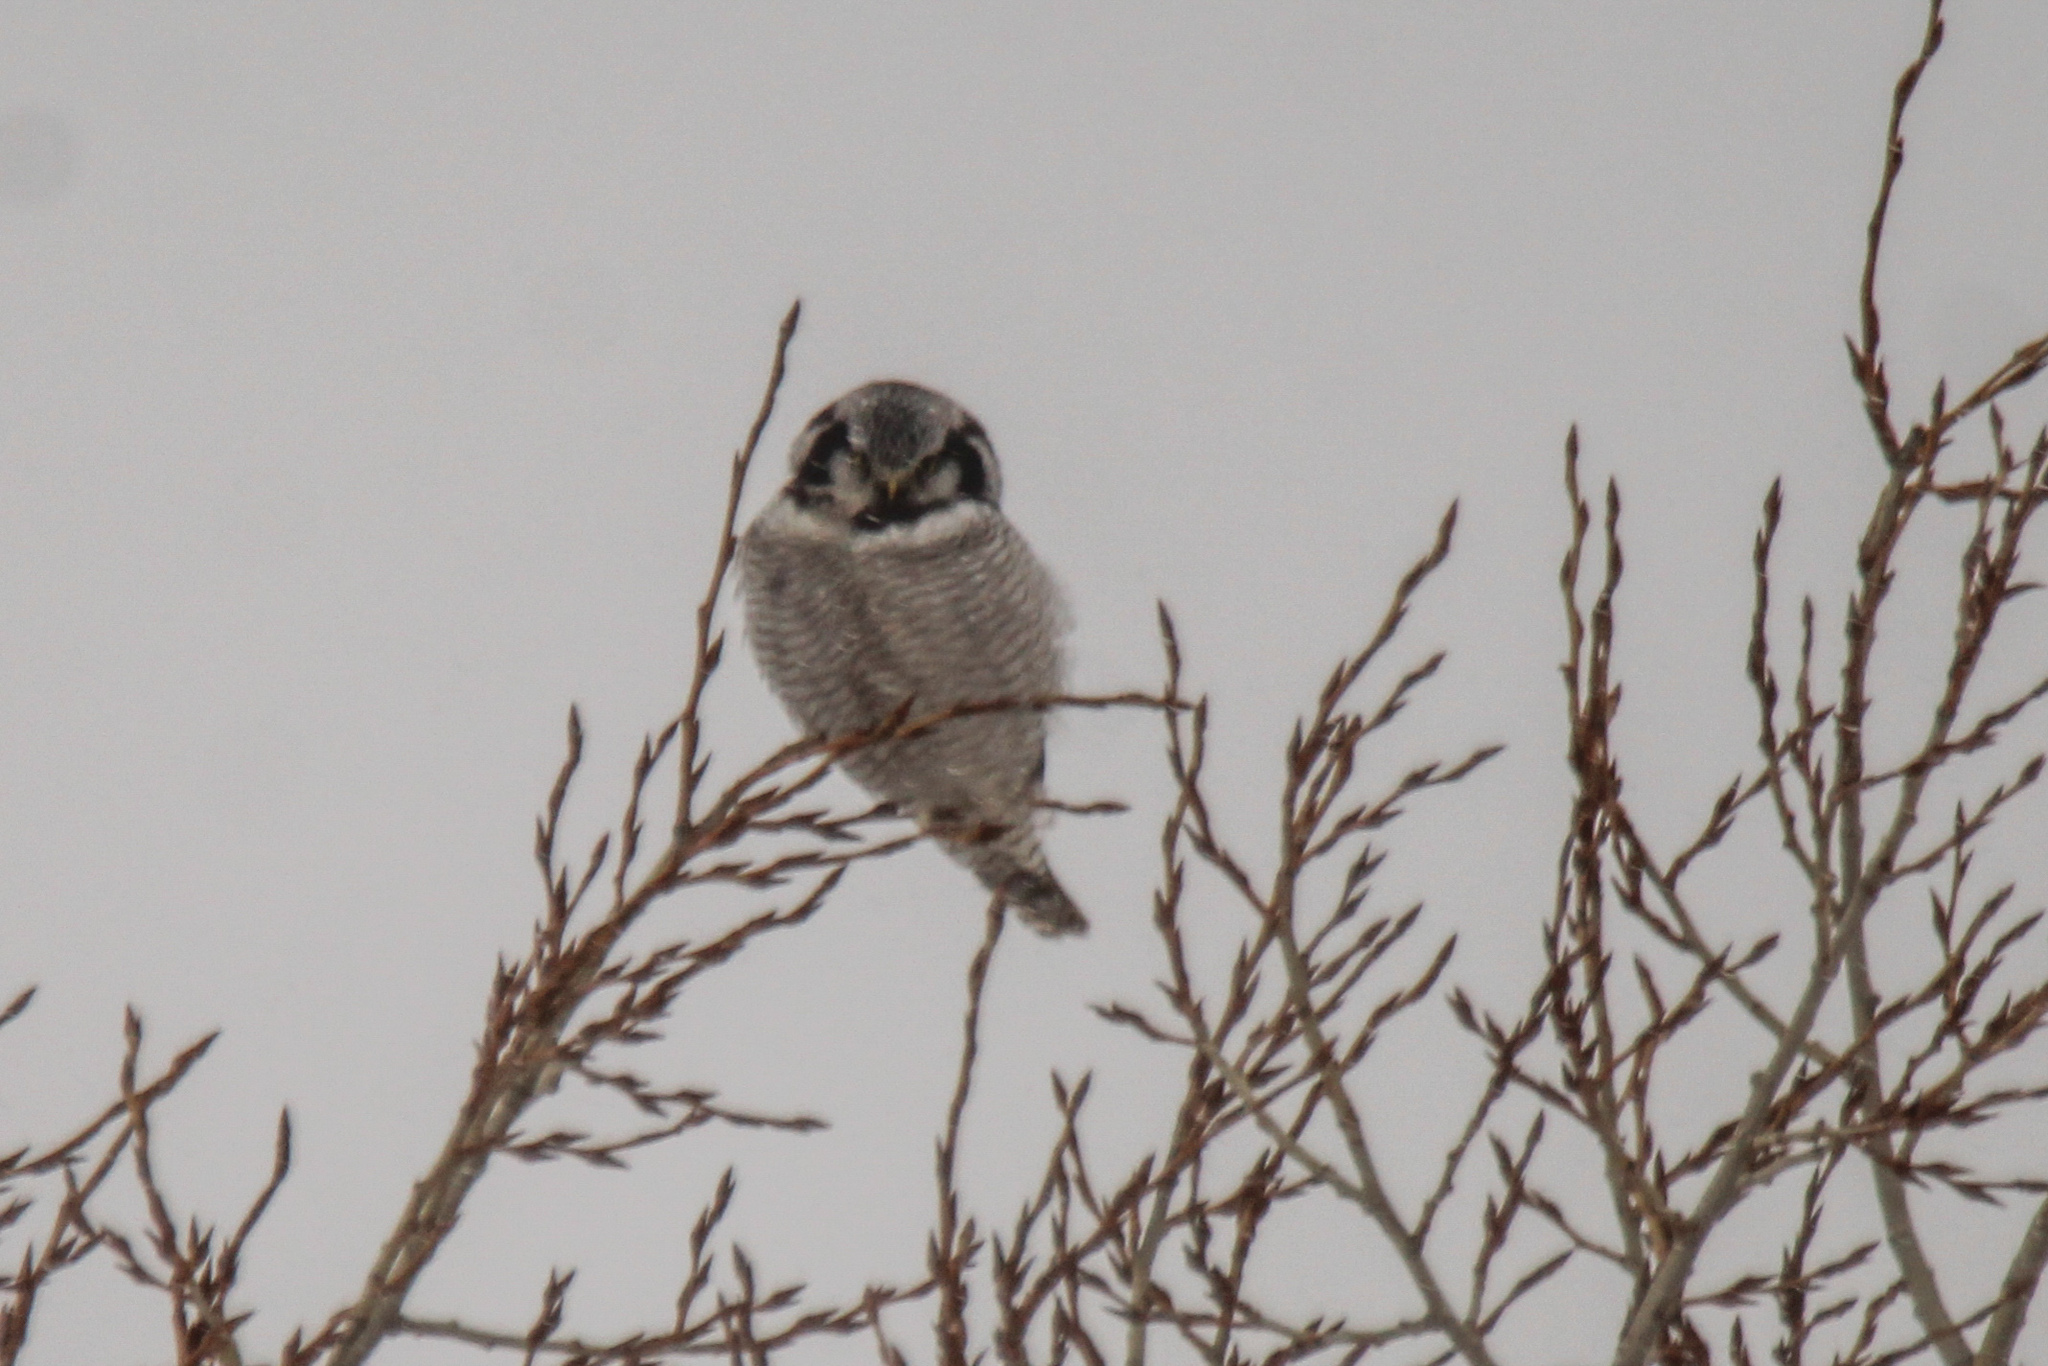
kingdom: Animalia
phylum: Chordata
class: Aves
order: Strigiformes
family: Strigidae
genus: Surnia
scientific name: Surnia ulula
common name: Northern hawk-owl
